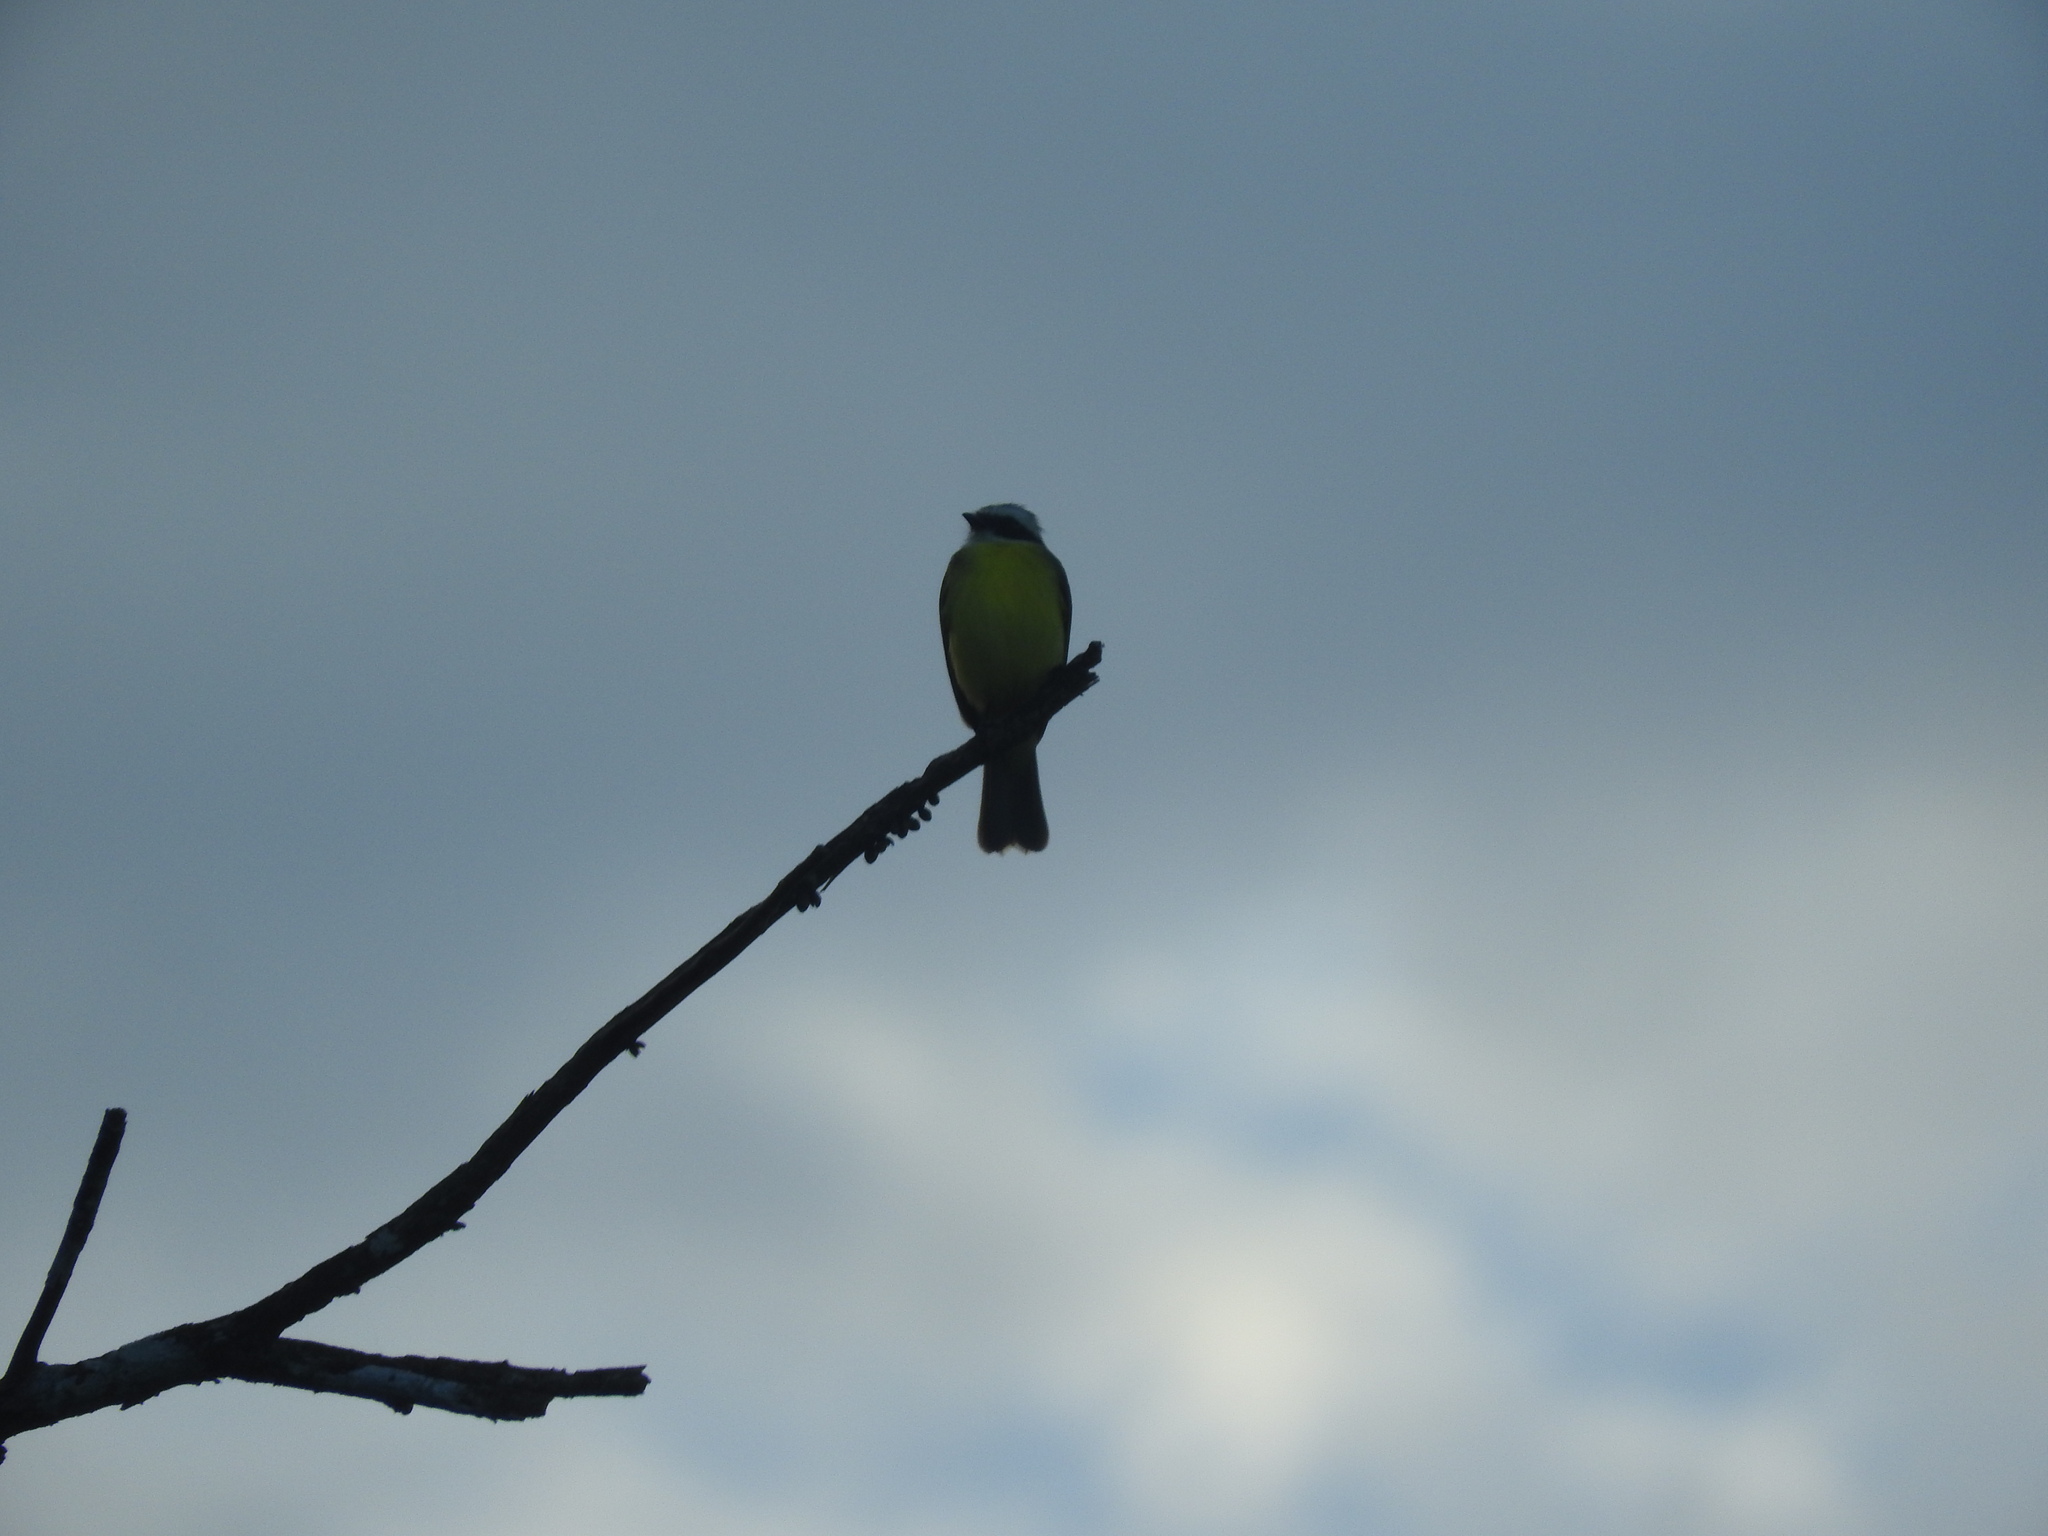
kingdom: Animalia
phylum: Chordata
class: Aves
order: Passeriformes
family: Tyrannidae
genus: Myiozetetes
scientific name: Myiozetetes similis
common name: Social flycatcher
